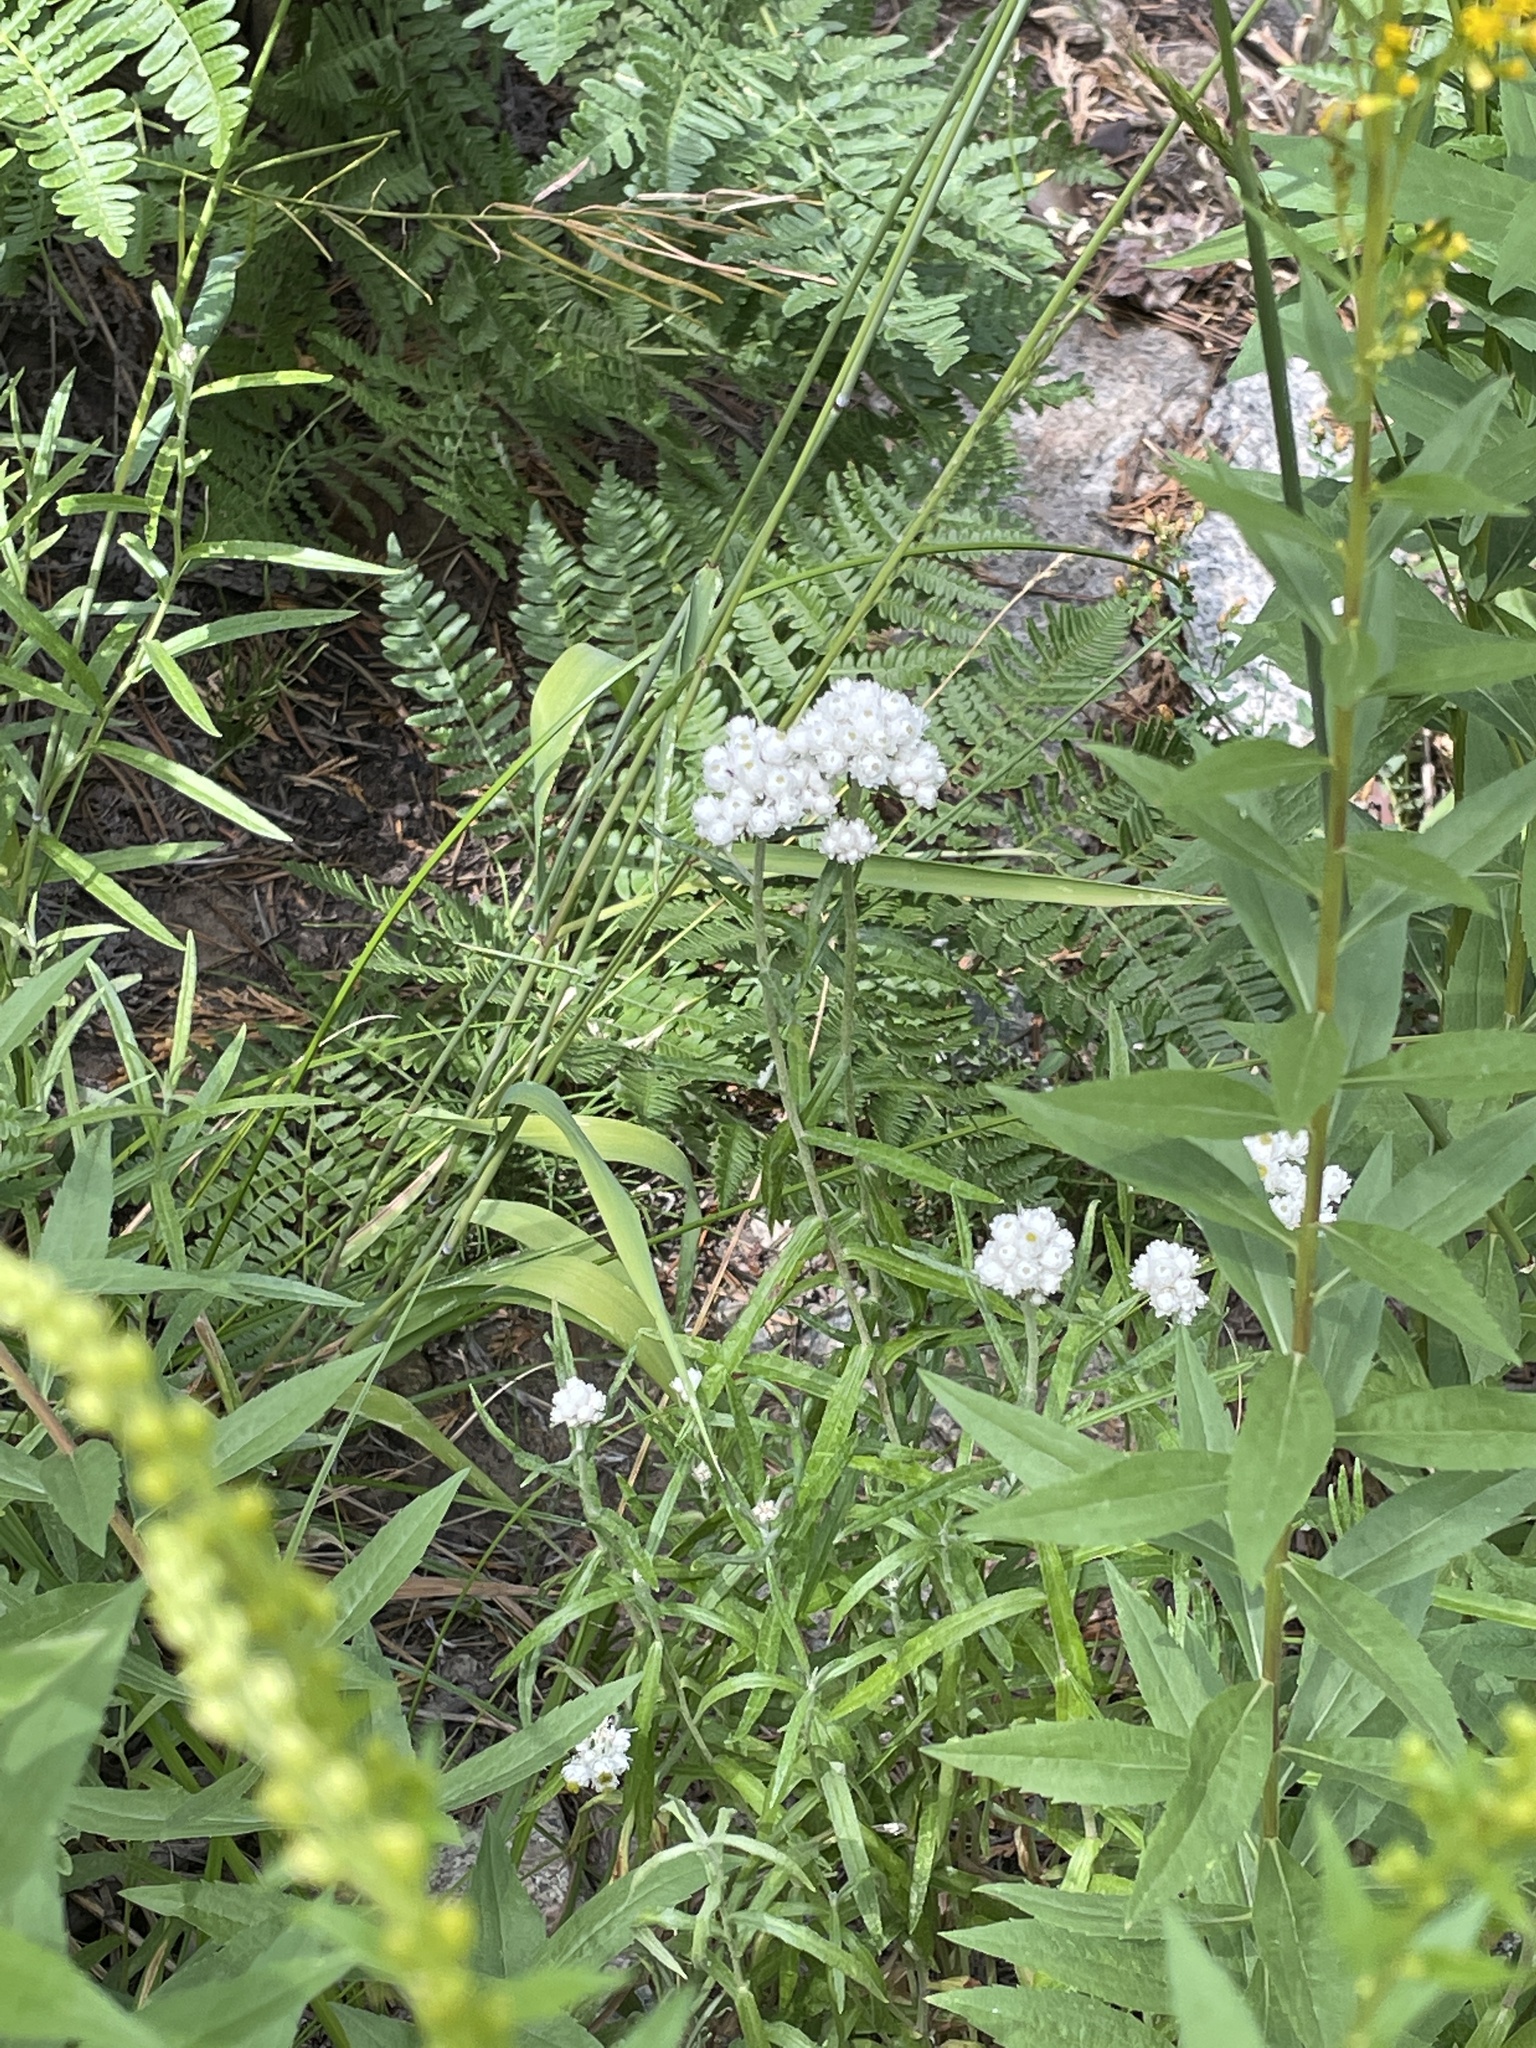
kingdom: Plantae
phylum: Tracheophyta
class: Magnoliopsida
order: Asterales
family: Asteraceae
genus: Anaphalis
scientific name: Anaphalis margaritacea
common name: Pearly everlasting
